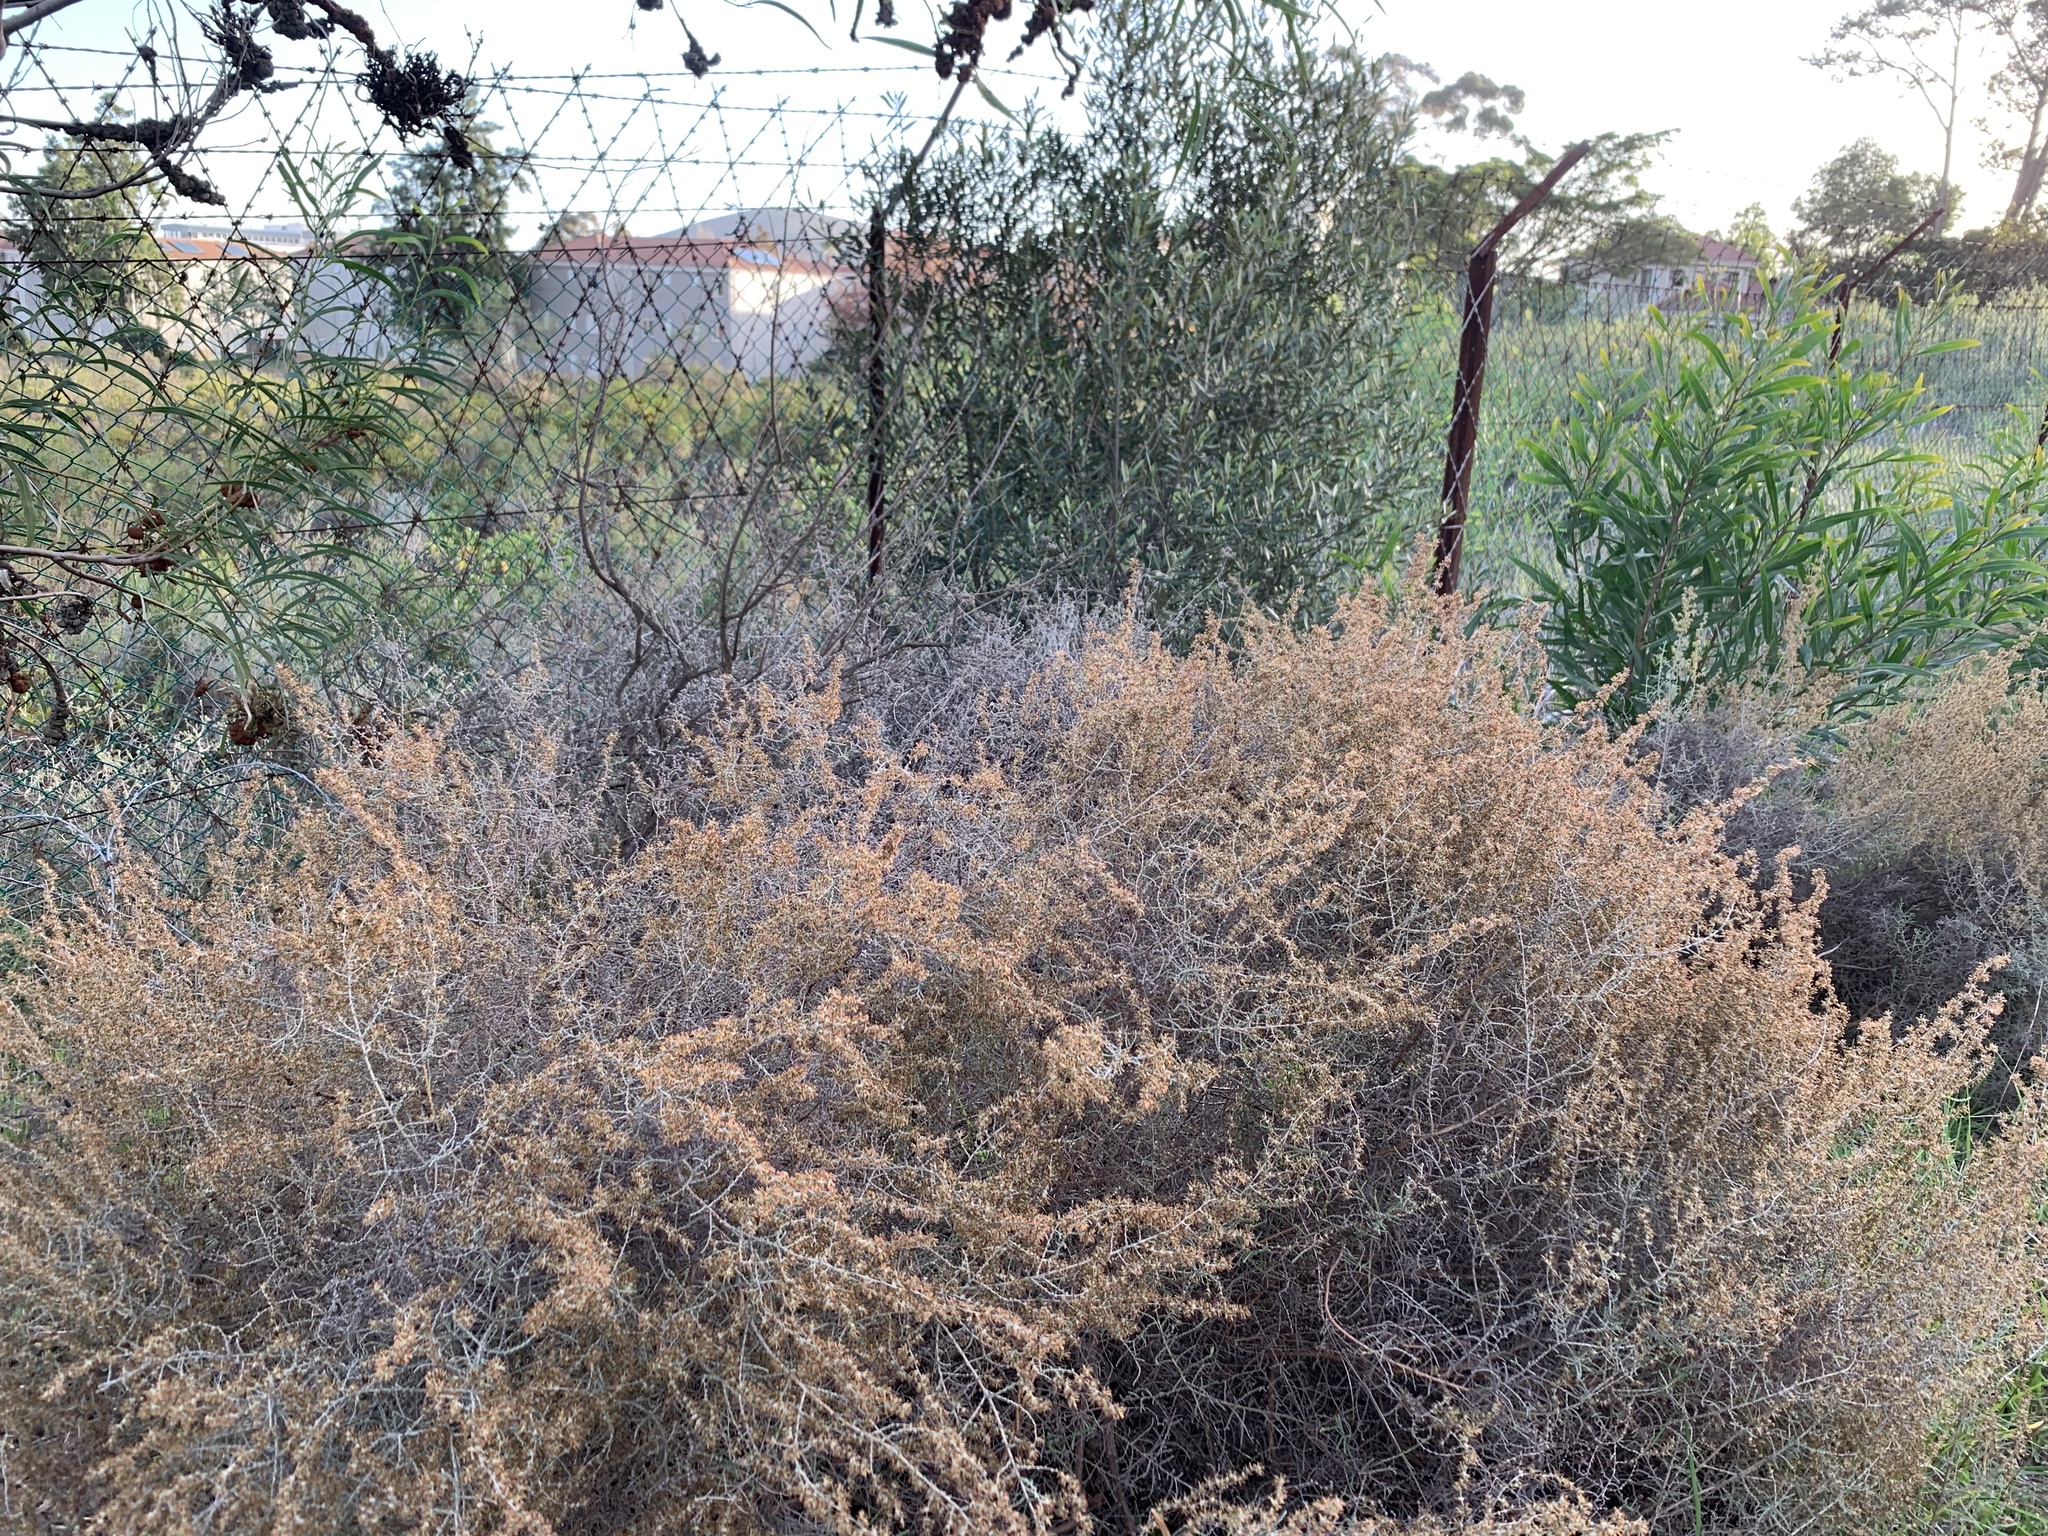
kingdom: Plantae
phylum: Tracheophyta
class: Magnoliopsida
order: Asterales
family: Asteraceae
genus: Seriphium
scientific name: Seriphium plumosum
